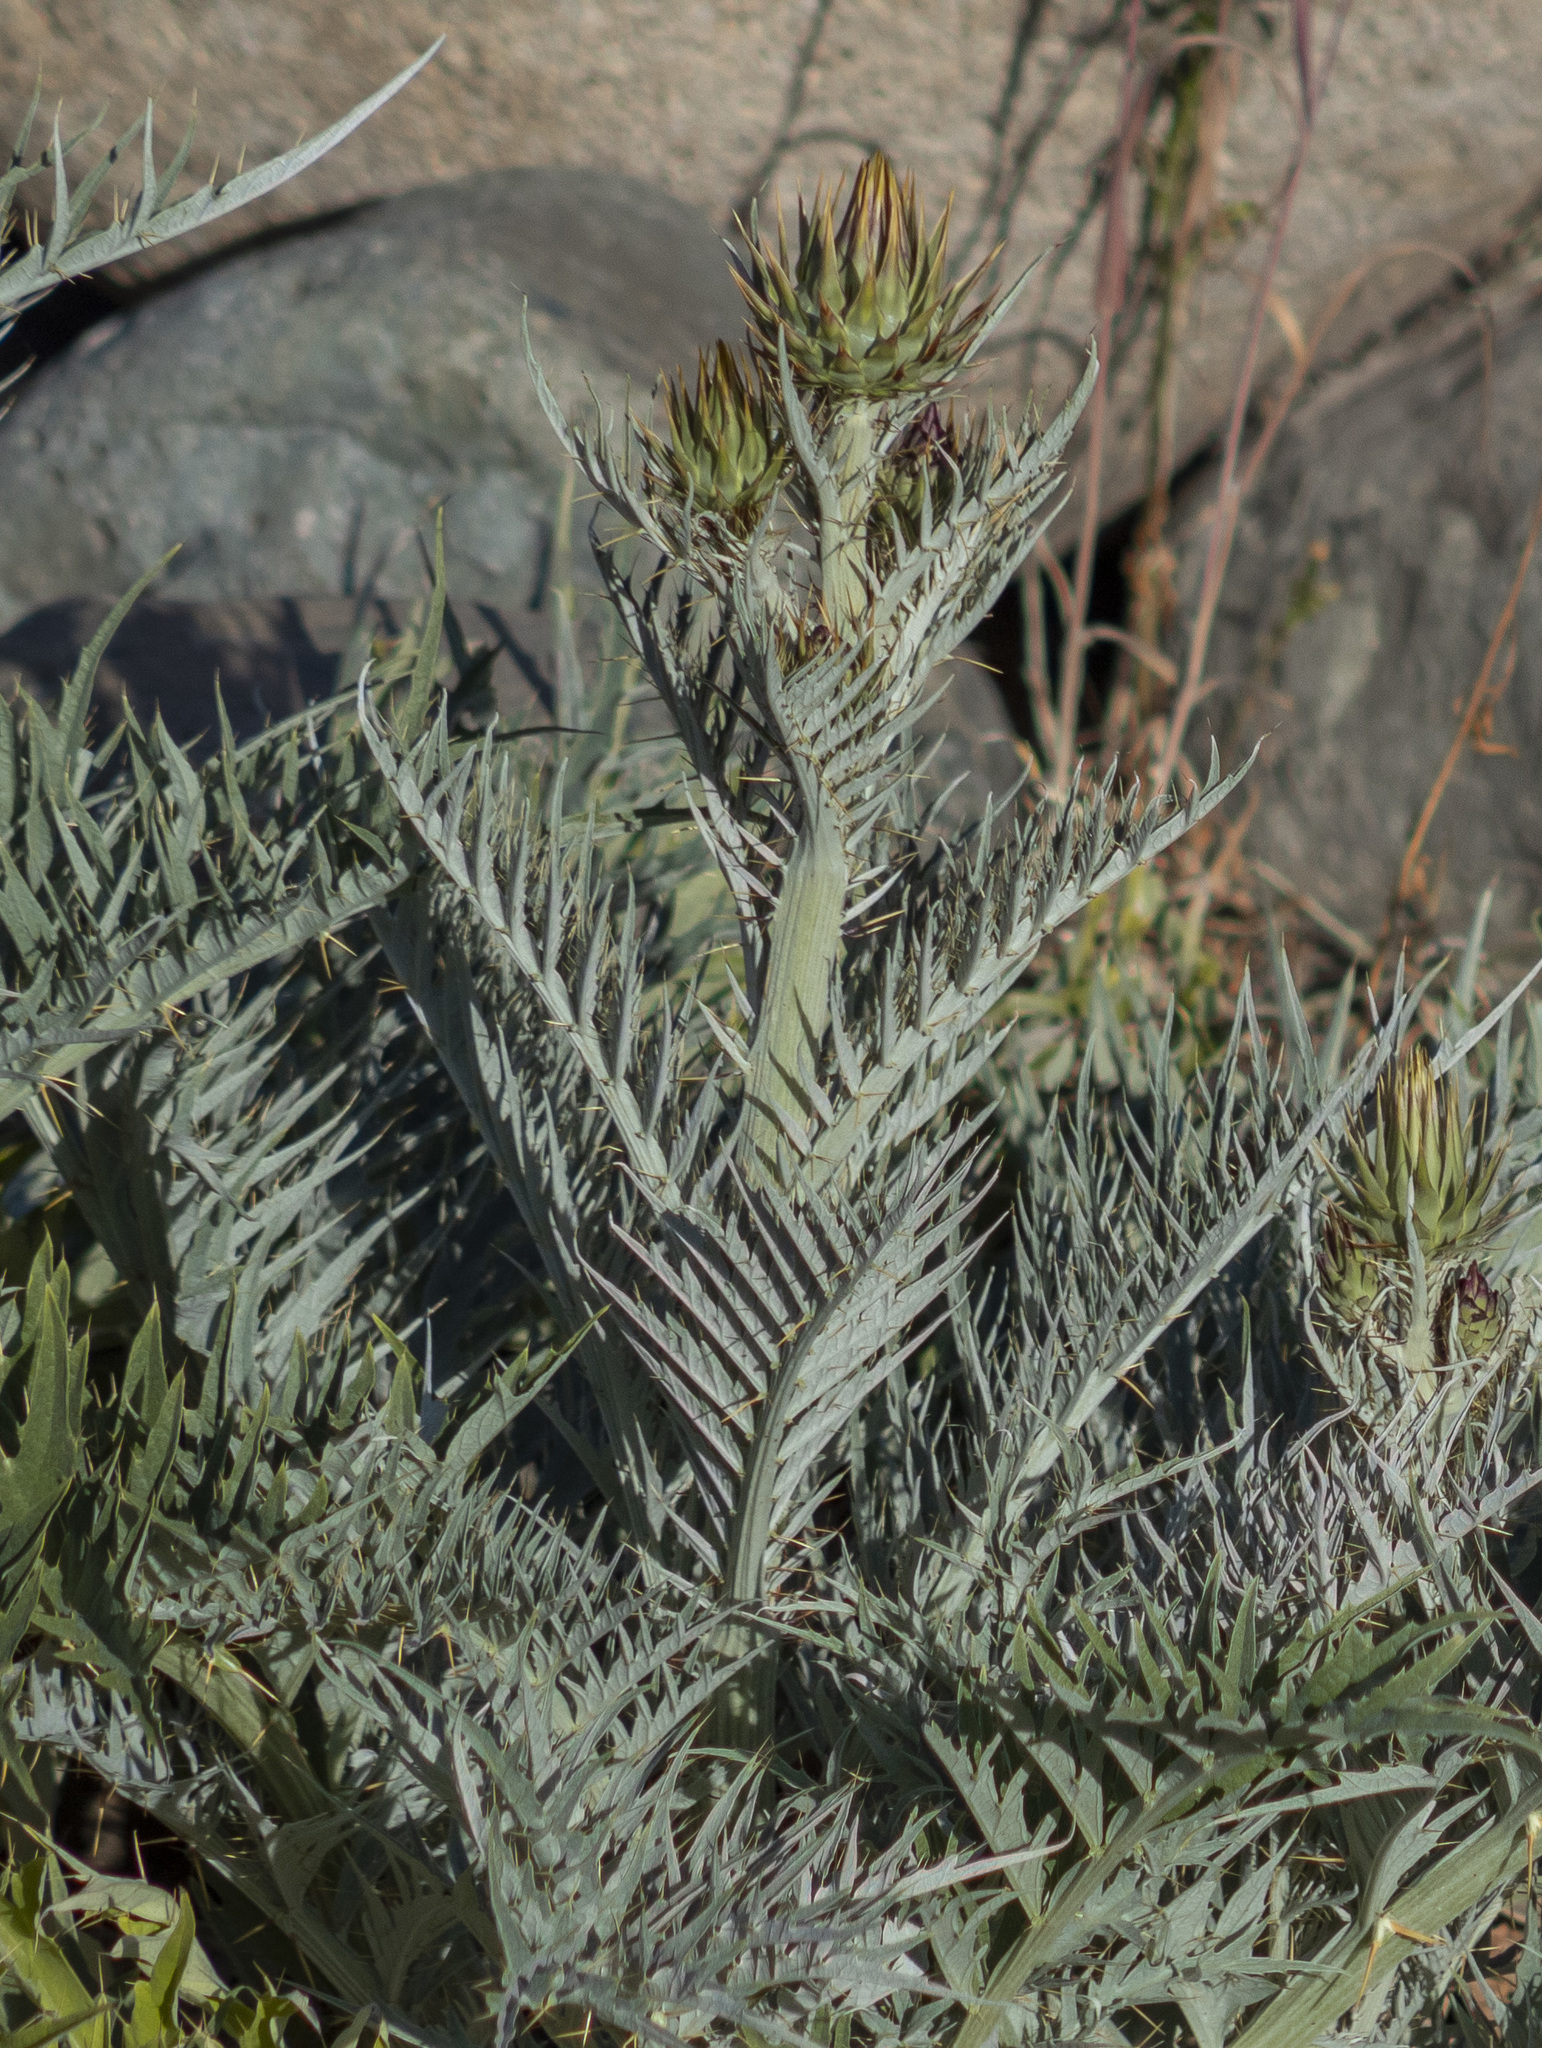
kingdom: Plantae
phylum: Tracheophyta
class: Magnoliopsida
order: Asterales
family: Asteraceae
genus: Cynara
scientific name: Cynara cardunculus
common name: Globe artichoke
